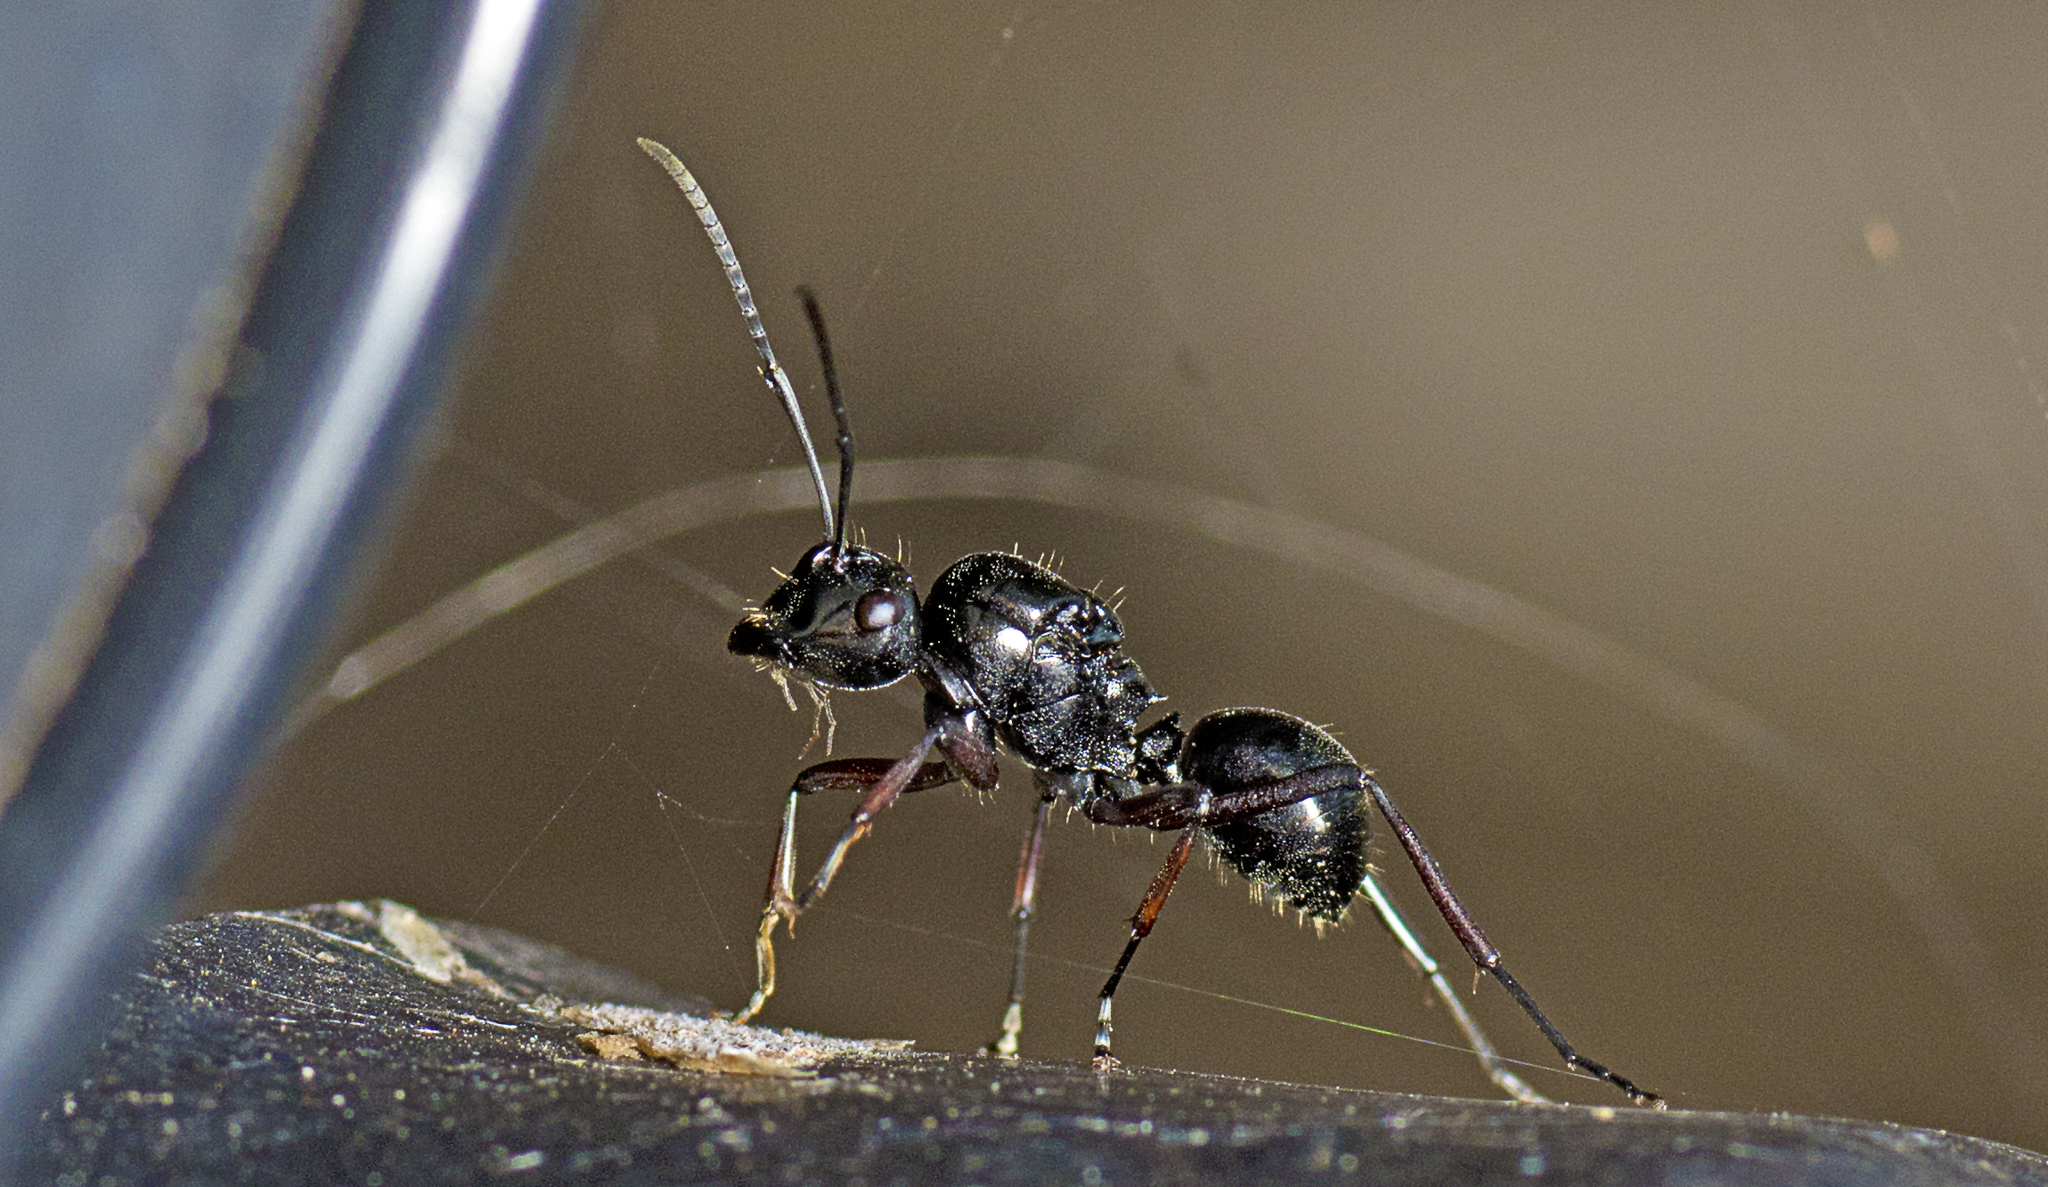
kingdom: Animalia
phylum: Arthropoda
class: Insecta
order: Hymenoptera
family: Formicidae
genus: Polyrhachis
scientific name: Polyrhachis australis
